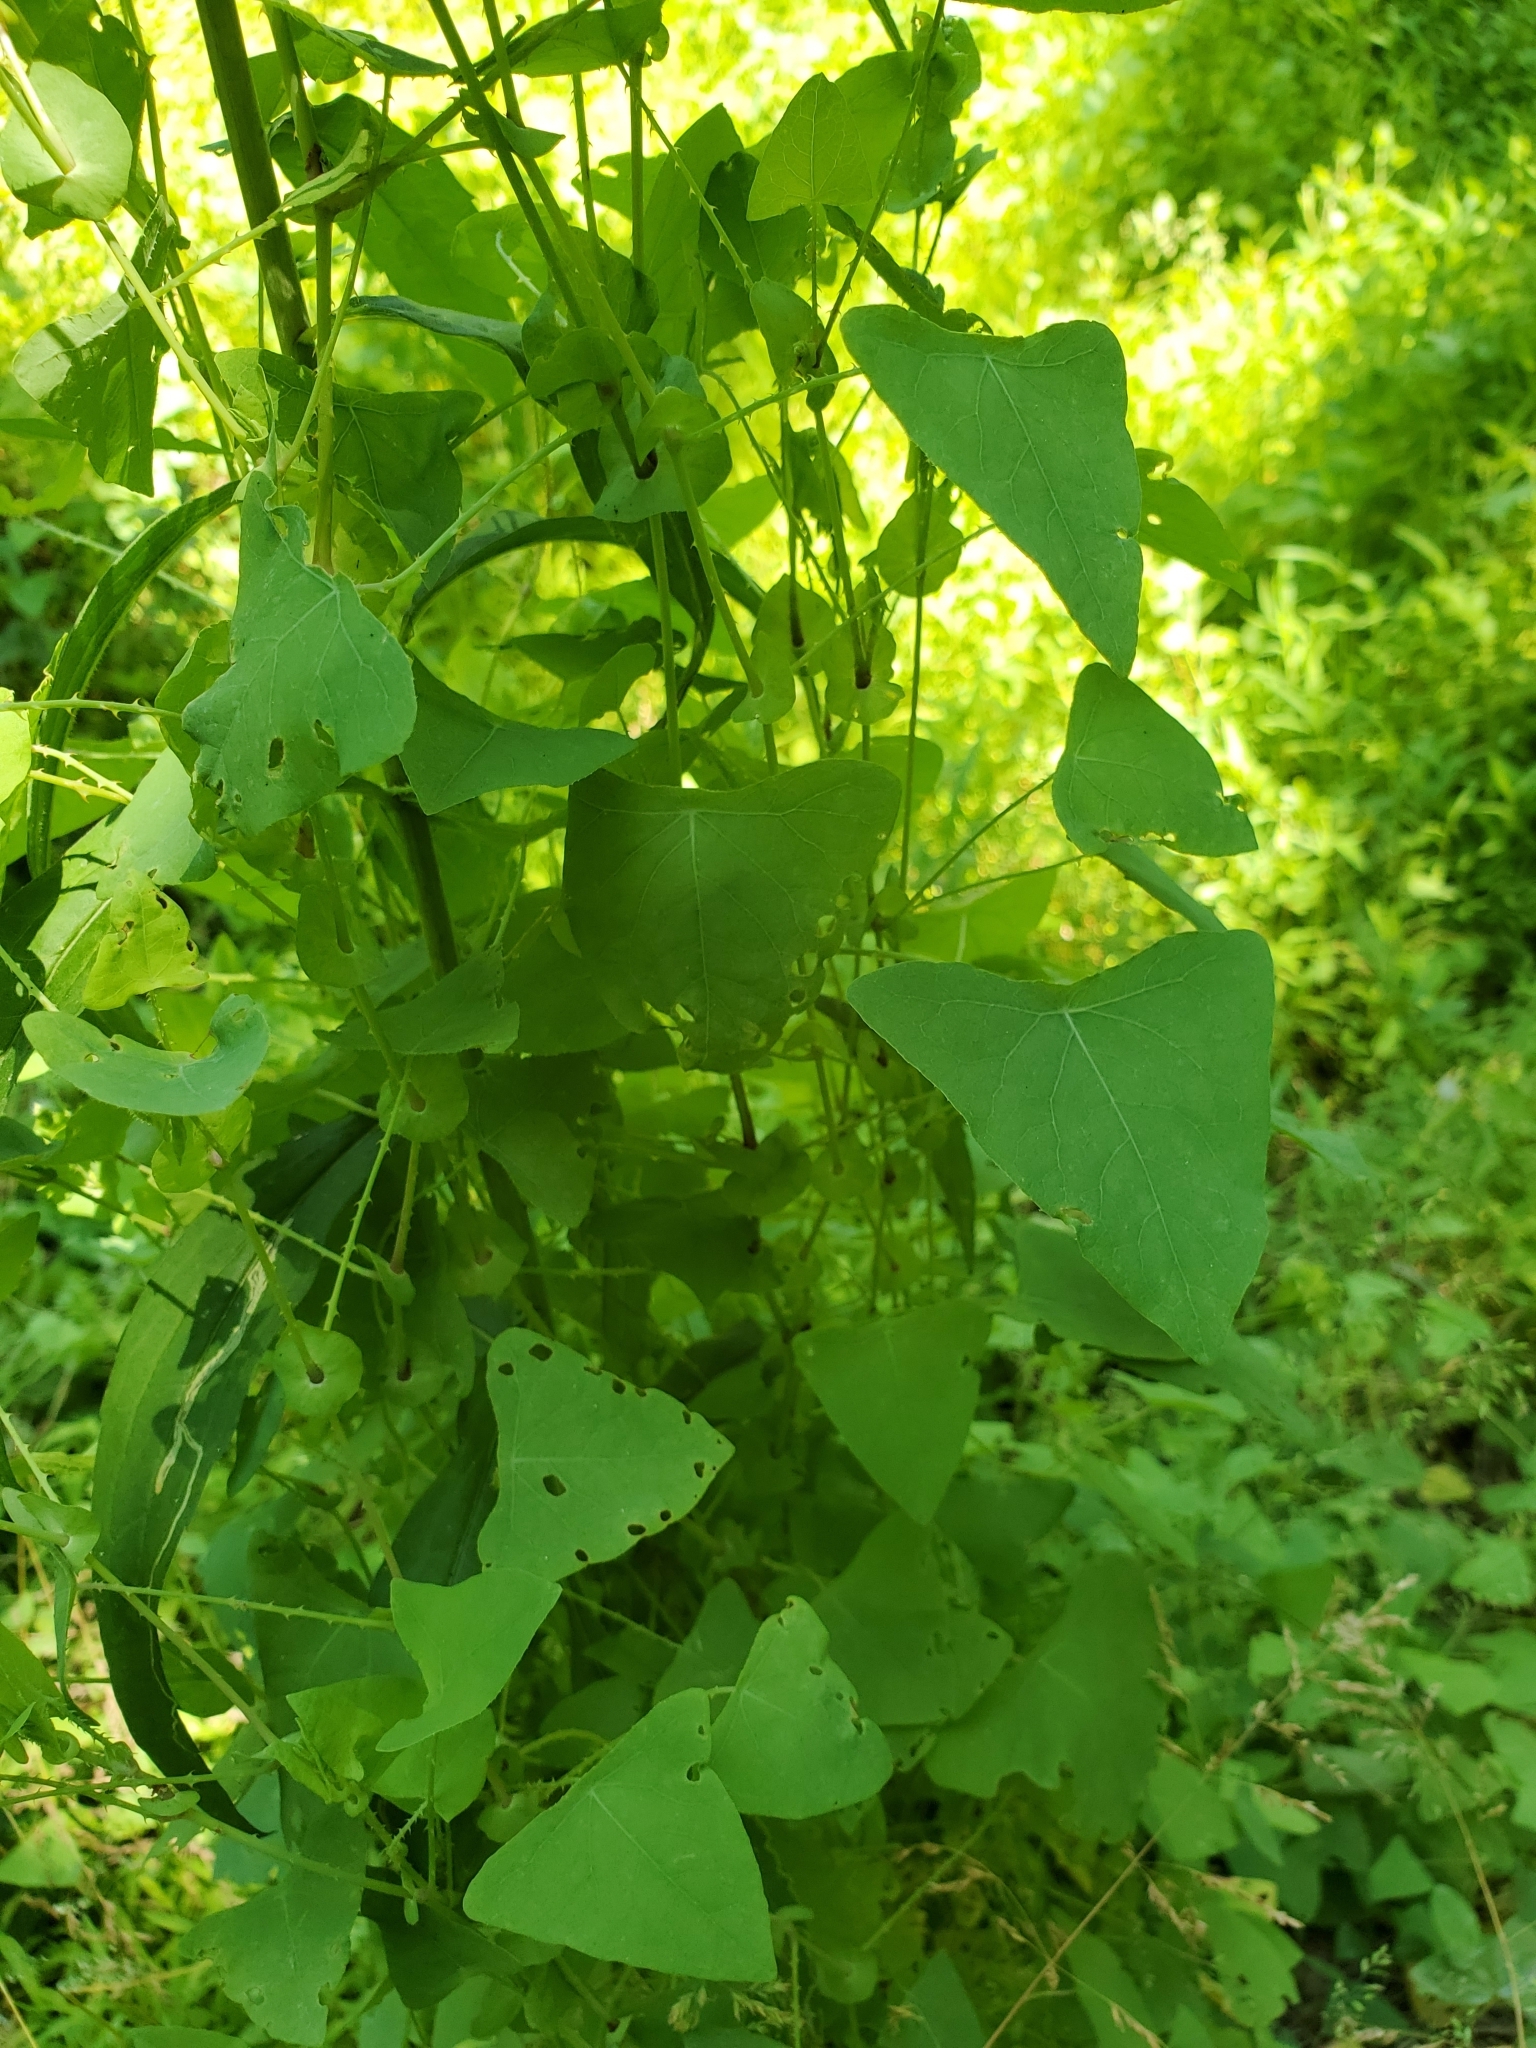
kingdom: Plantae
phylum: Tracheophyta
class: Magnoliopsida
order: Caryophyllales
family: Polygonaceae
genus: Persicaria
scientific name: Persicaria perfoliata
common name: Asiatic tearthumb
